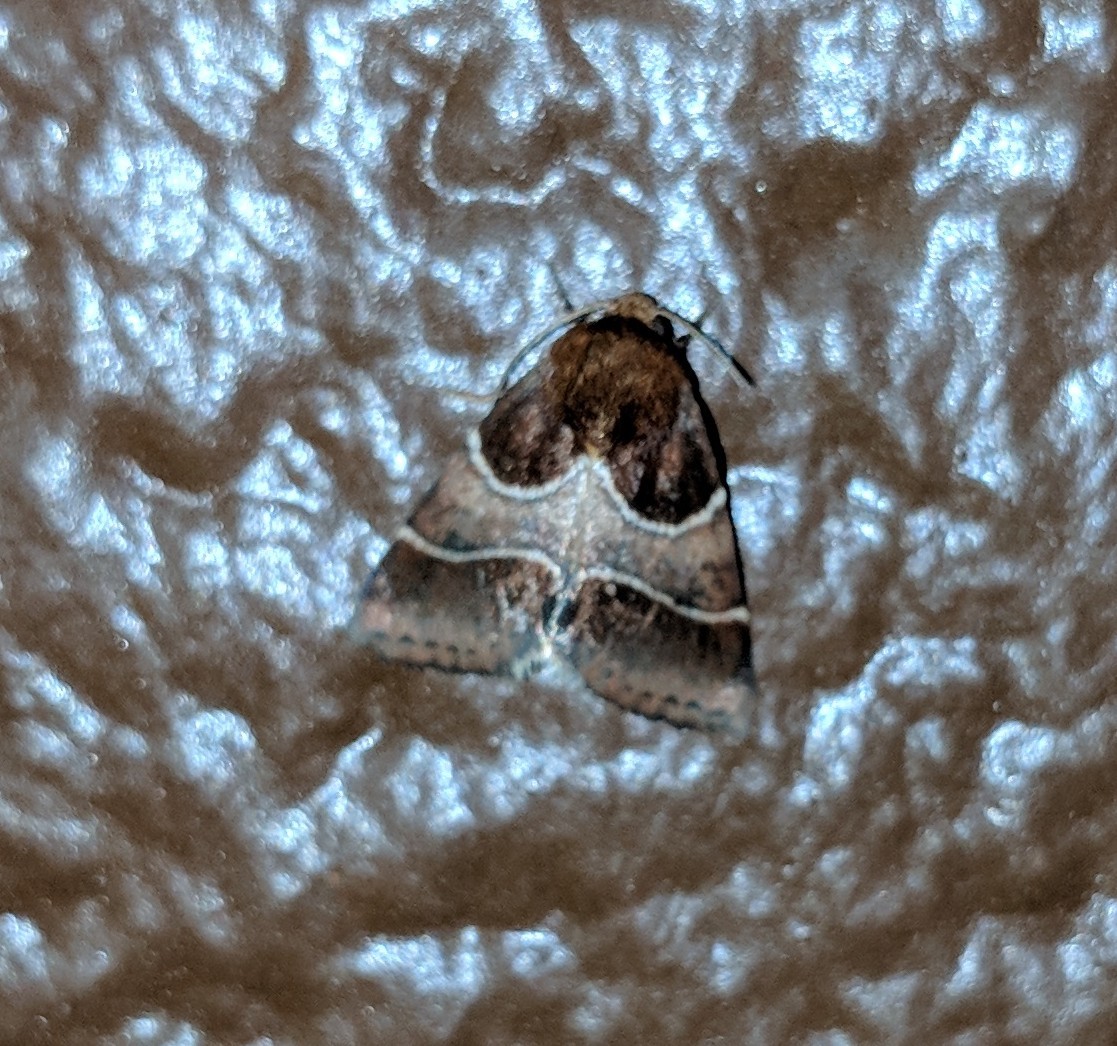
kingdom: Animalia
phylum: Arthropoda
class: Insecta
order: Lepidoptera
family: Noctuidae
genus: Schinia
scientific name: Schinia arcigera
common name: Arcigera flower moth
